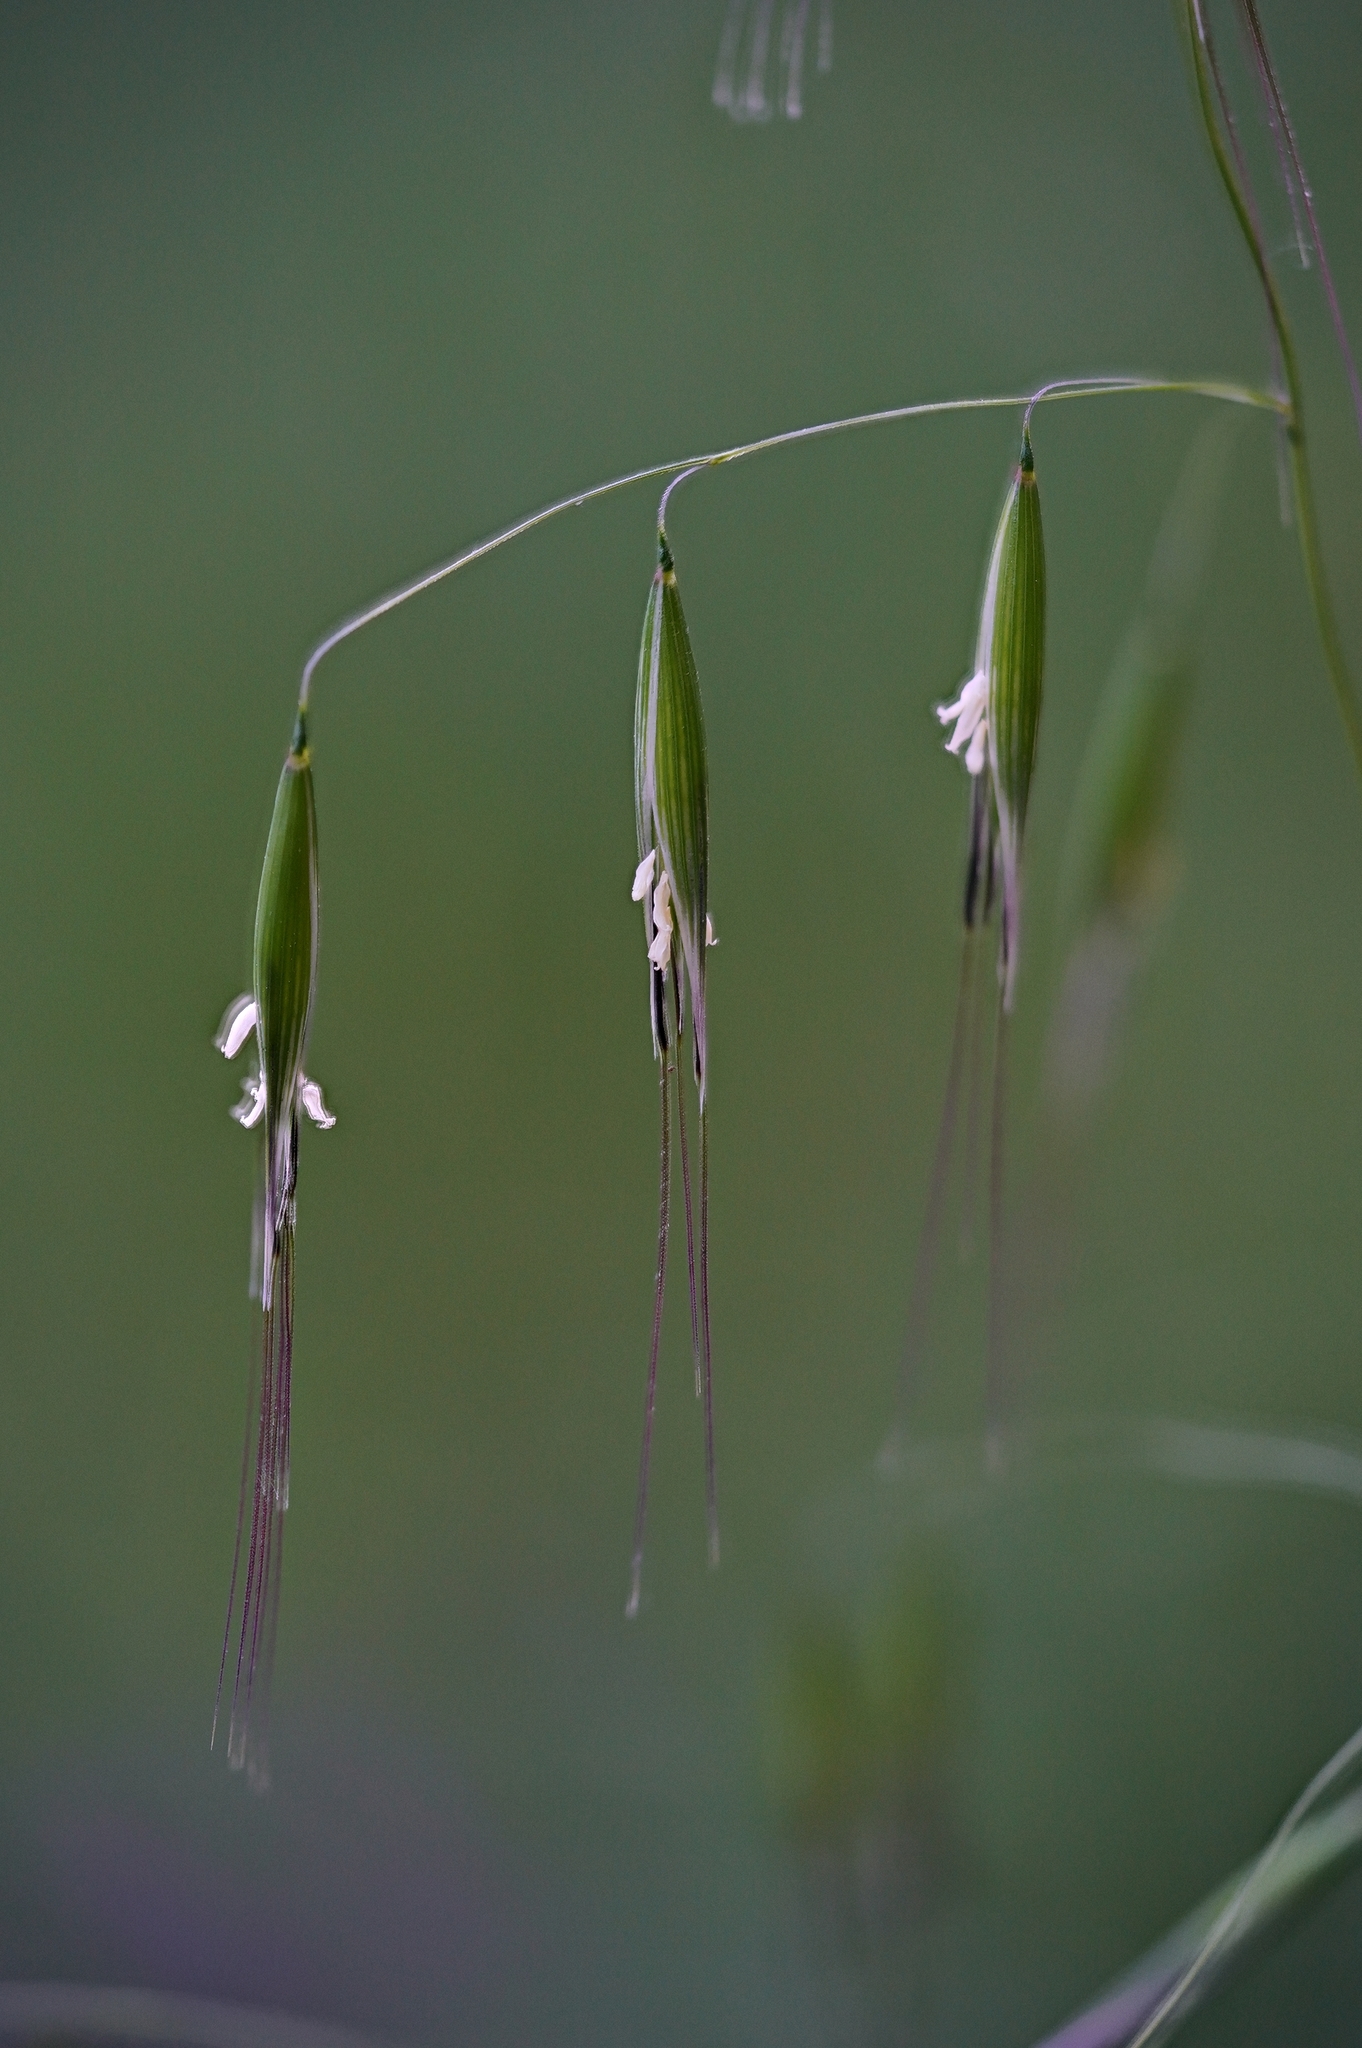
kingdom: Plantae
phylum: Tracheophyta
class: Liliopsida
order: Poales
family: Poaceae
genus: Avena
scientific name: Avena barbata
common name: Slender oat
